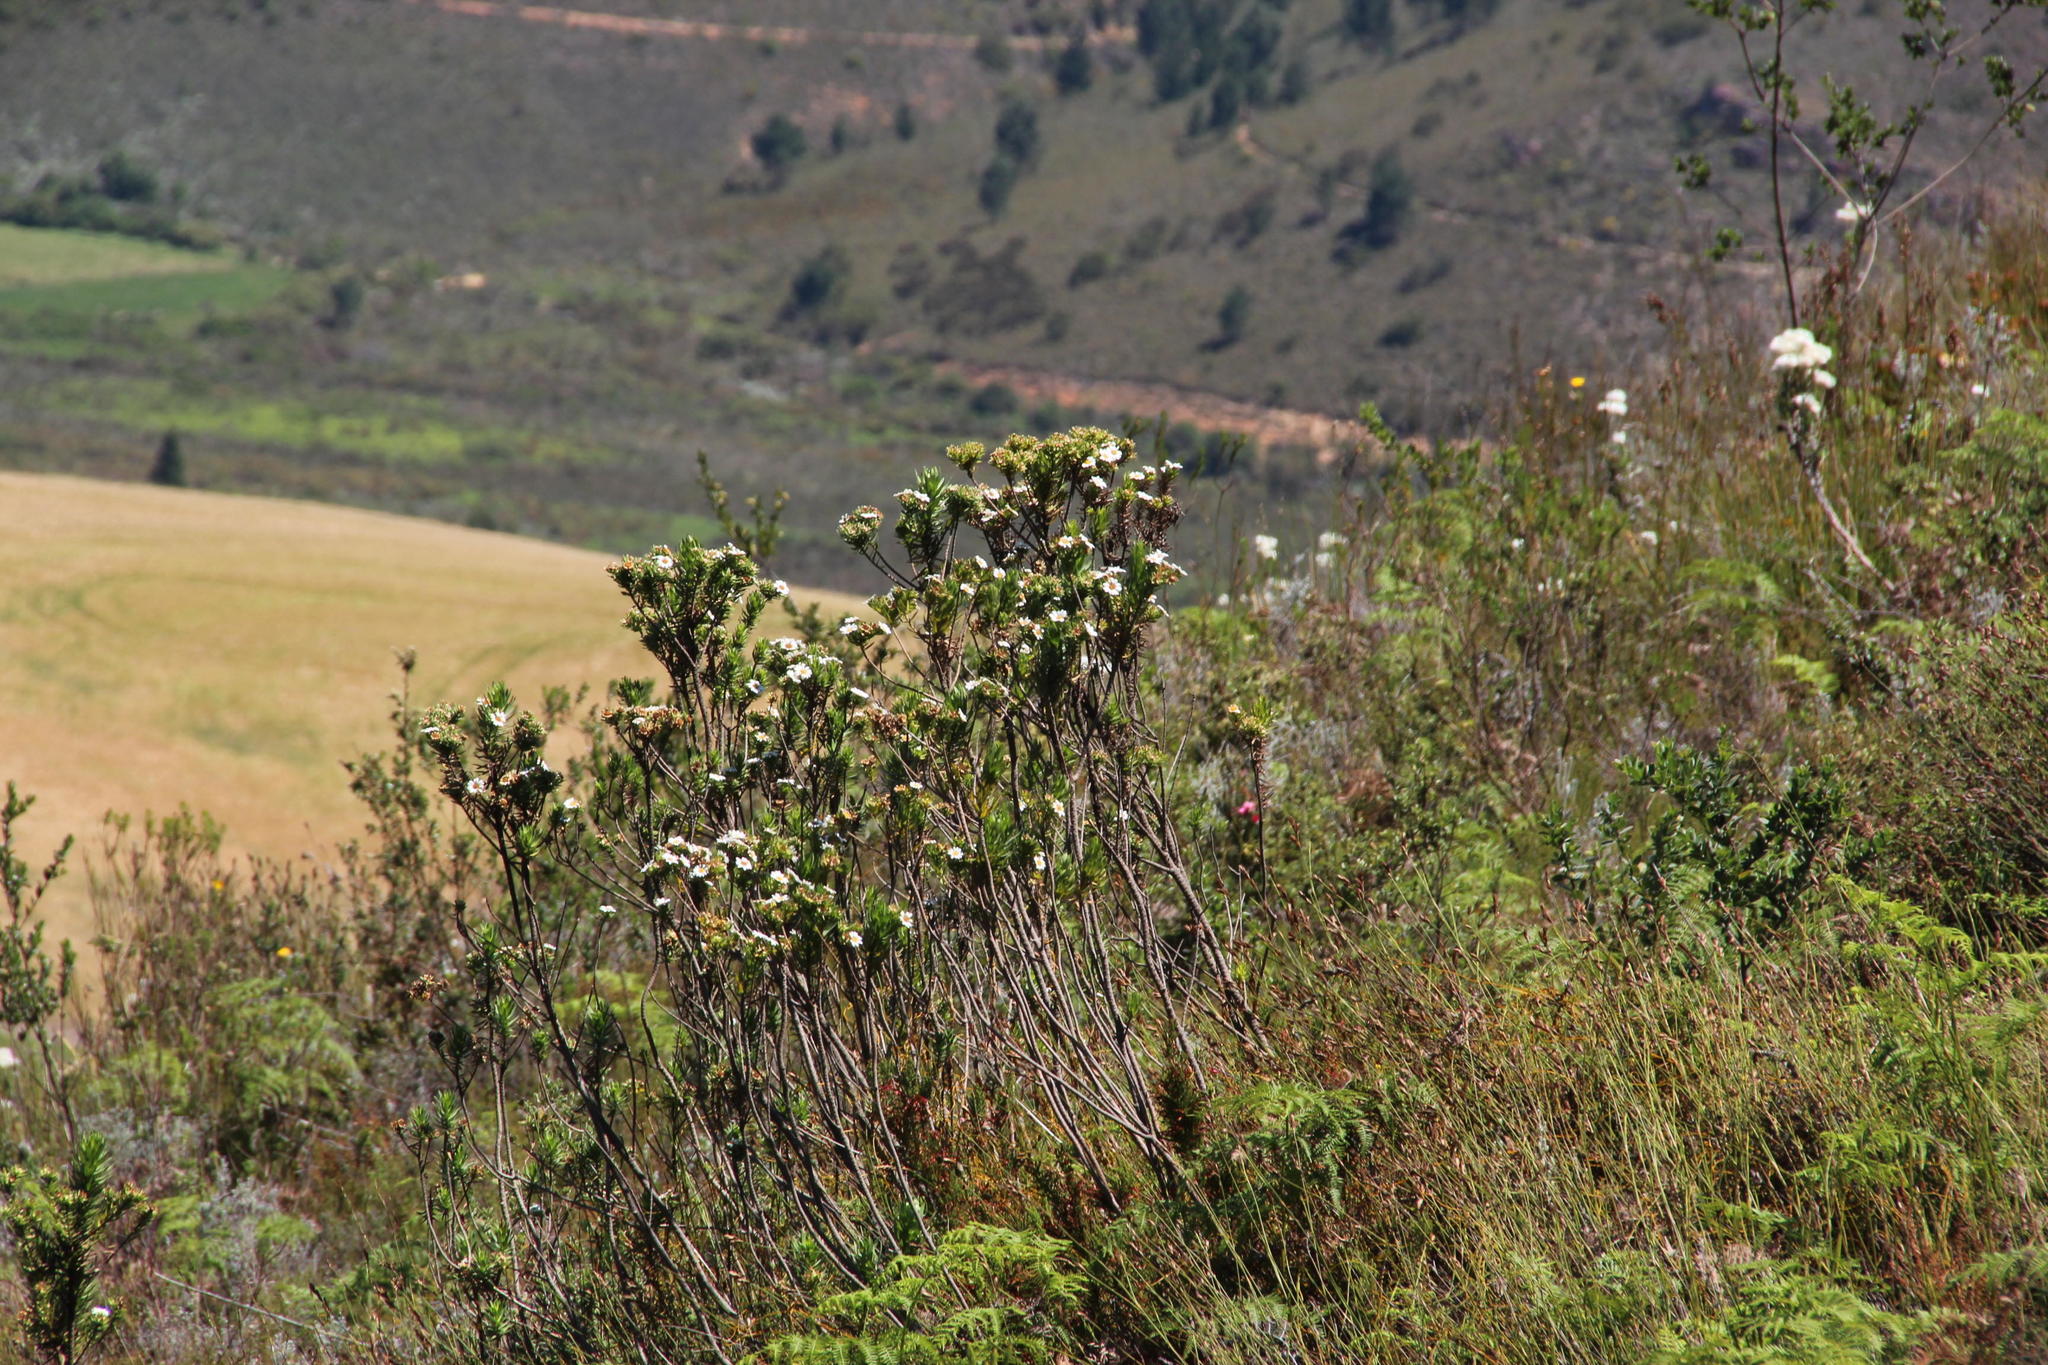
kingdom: Plantae
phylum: Tracheophyta
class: Magnoliopsida
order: Asterales
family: Asteraceae
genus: Osmitopsis
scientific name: Osmitopsis asteriscoides
